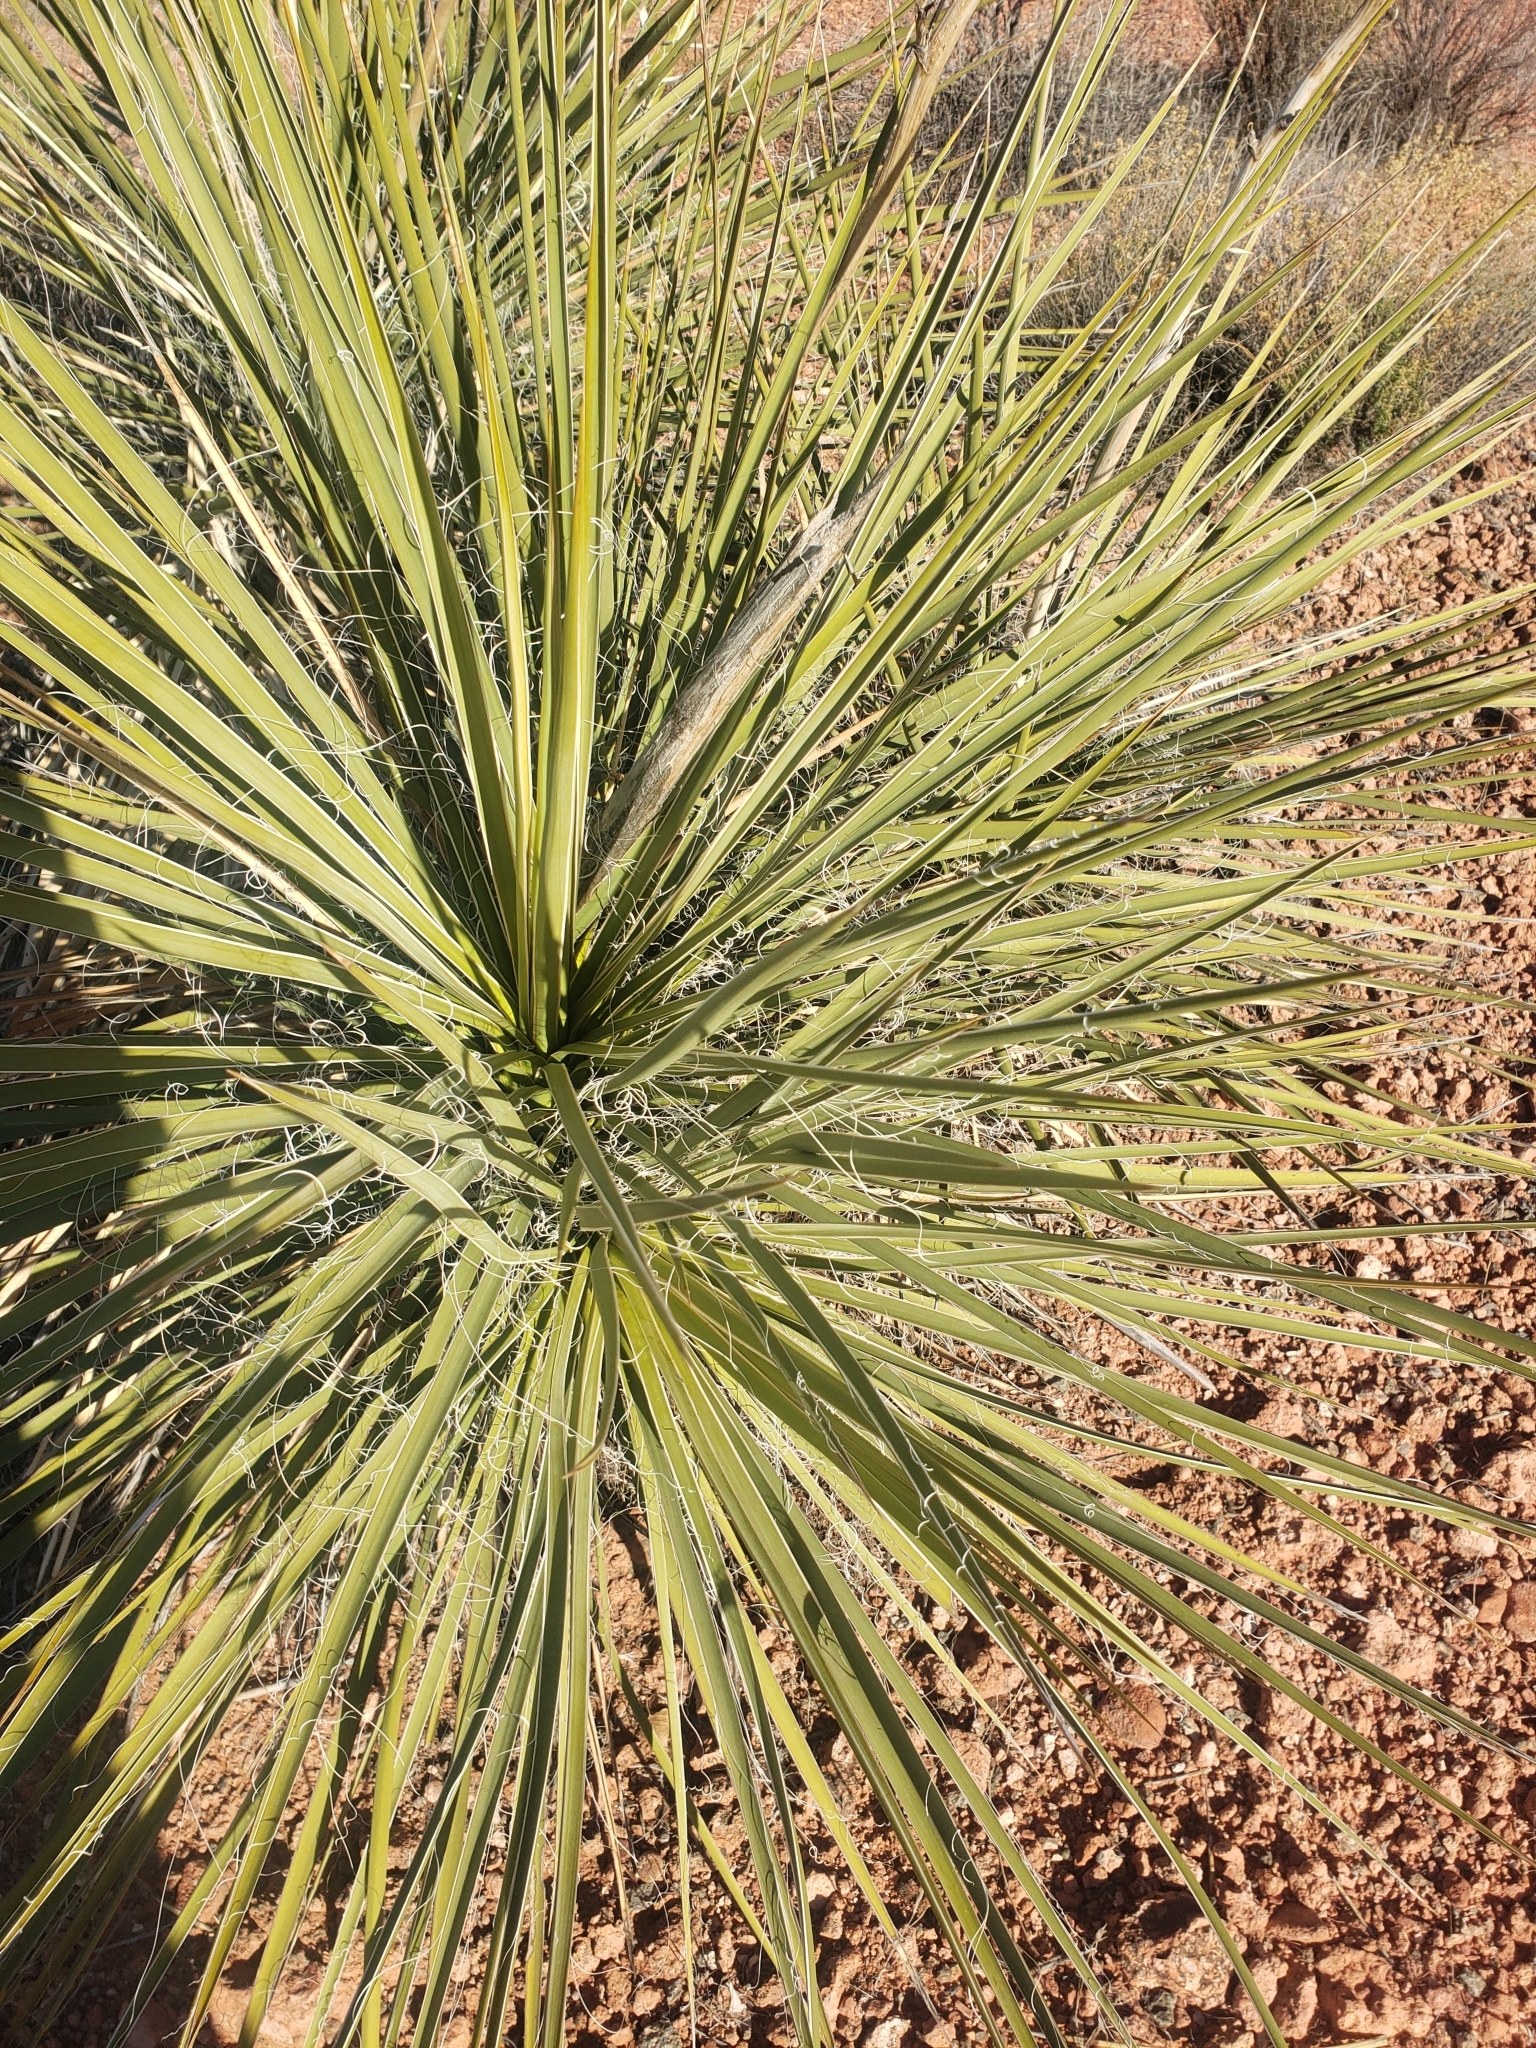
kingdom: Plantae
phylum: Tracheophyta
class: Liliopsida
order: Asparagales
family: Asparagaceae
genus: Yucca
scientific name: Yucca angustissima
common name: Narrowleaf yucca
